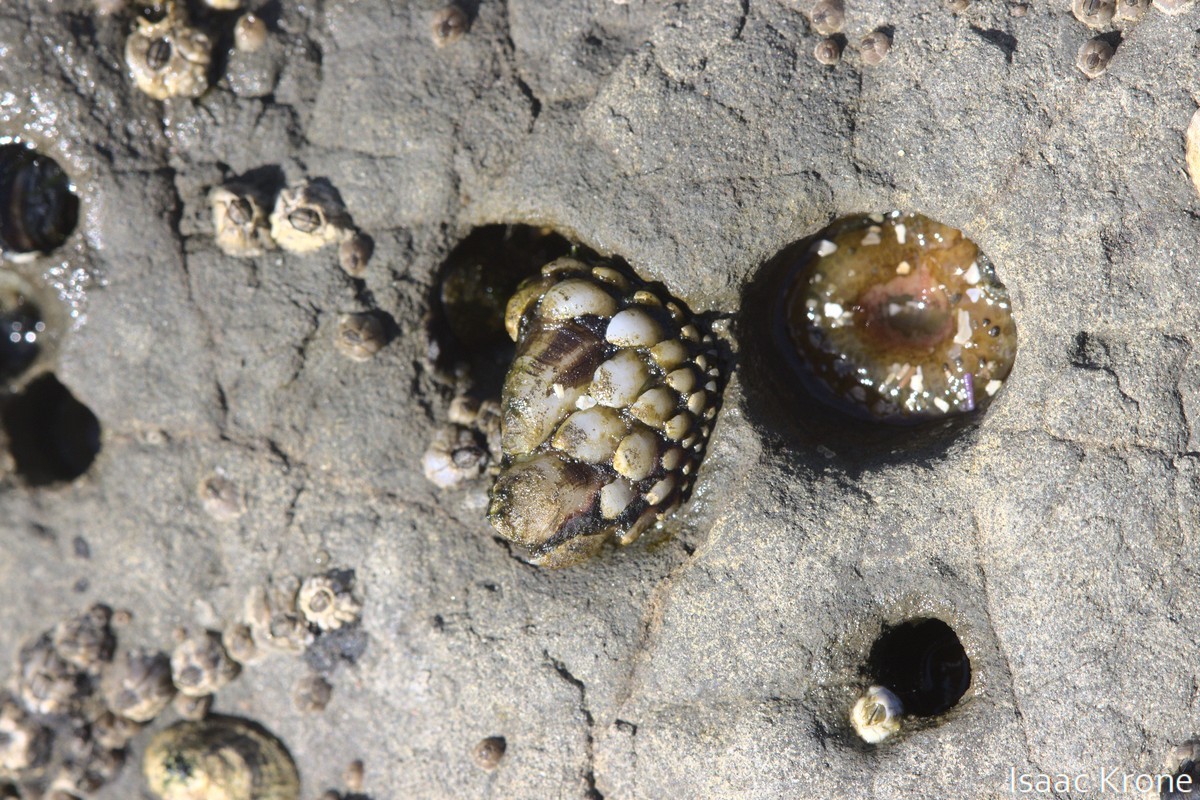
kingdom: Animalia
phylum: Arthropoda
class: Maxillopoda
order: Pedunculata
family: Pollicipedidae
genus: Pollicipes
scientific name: Pollicipes polymerus
